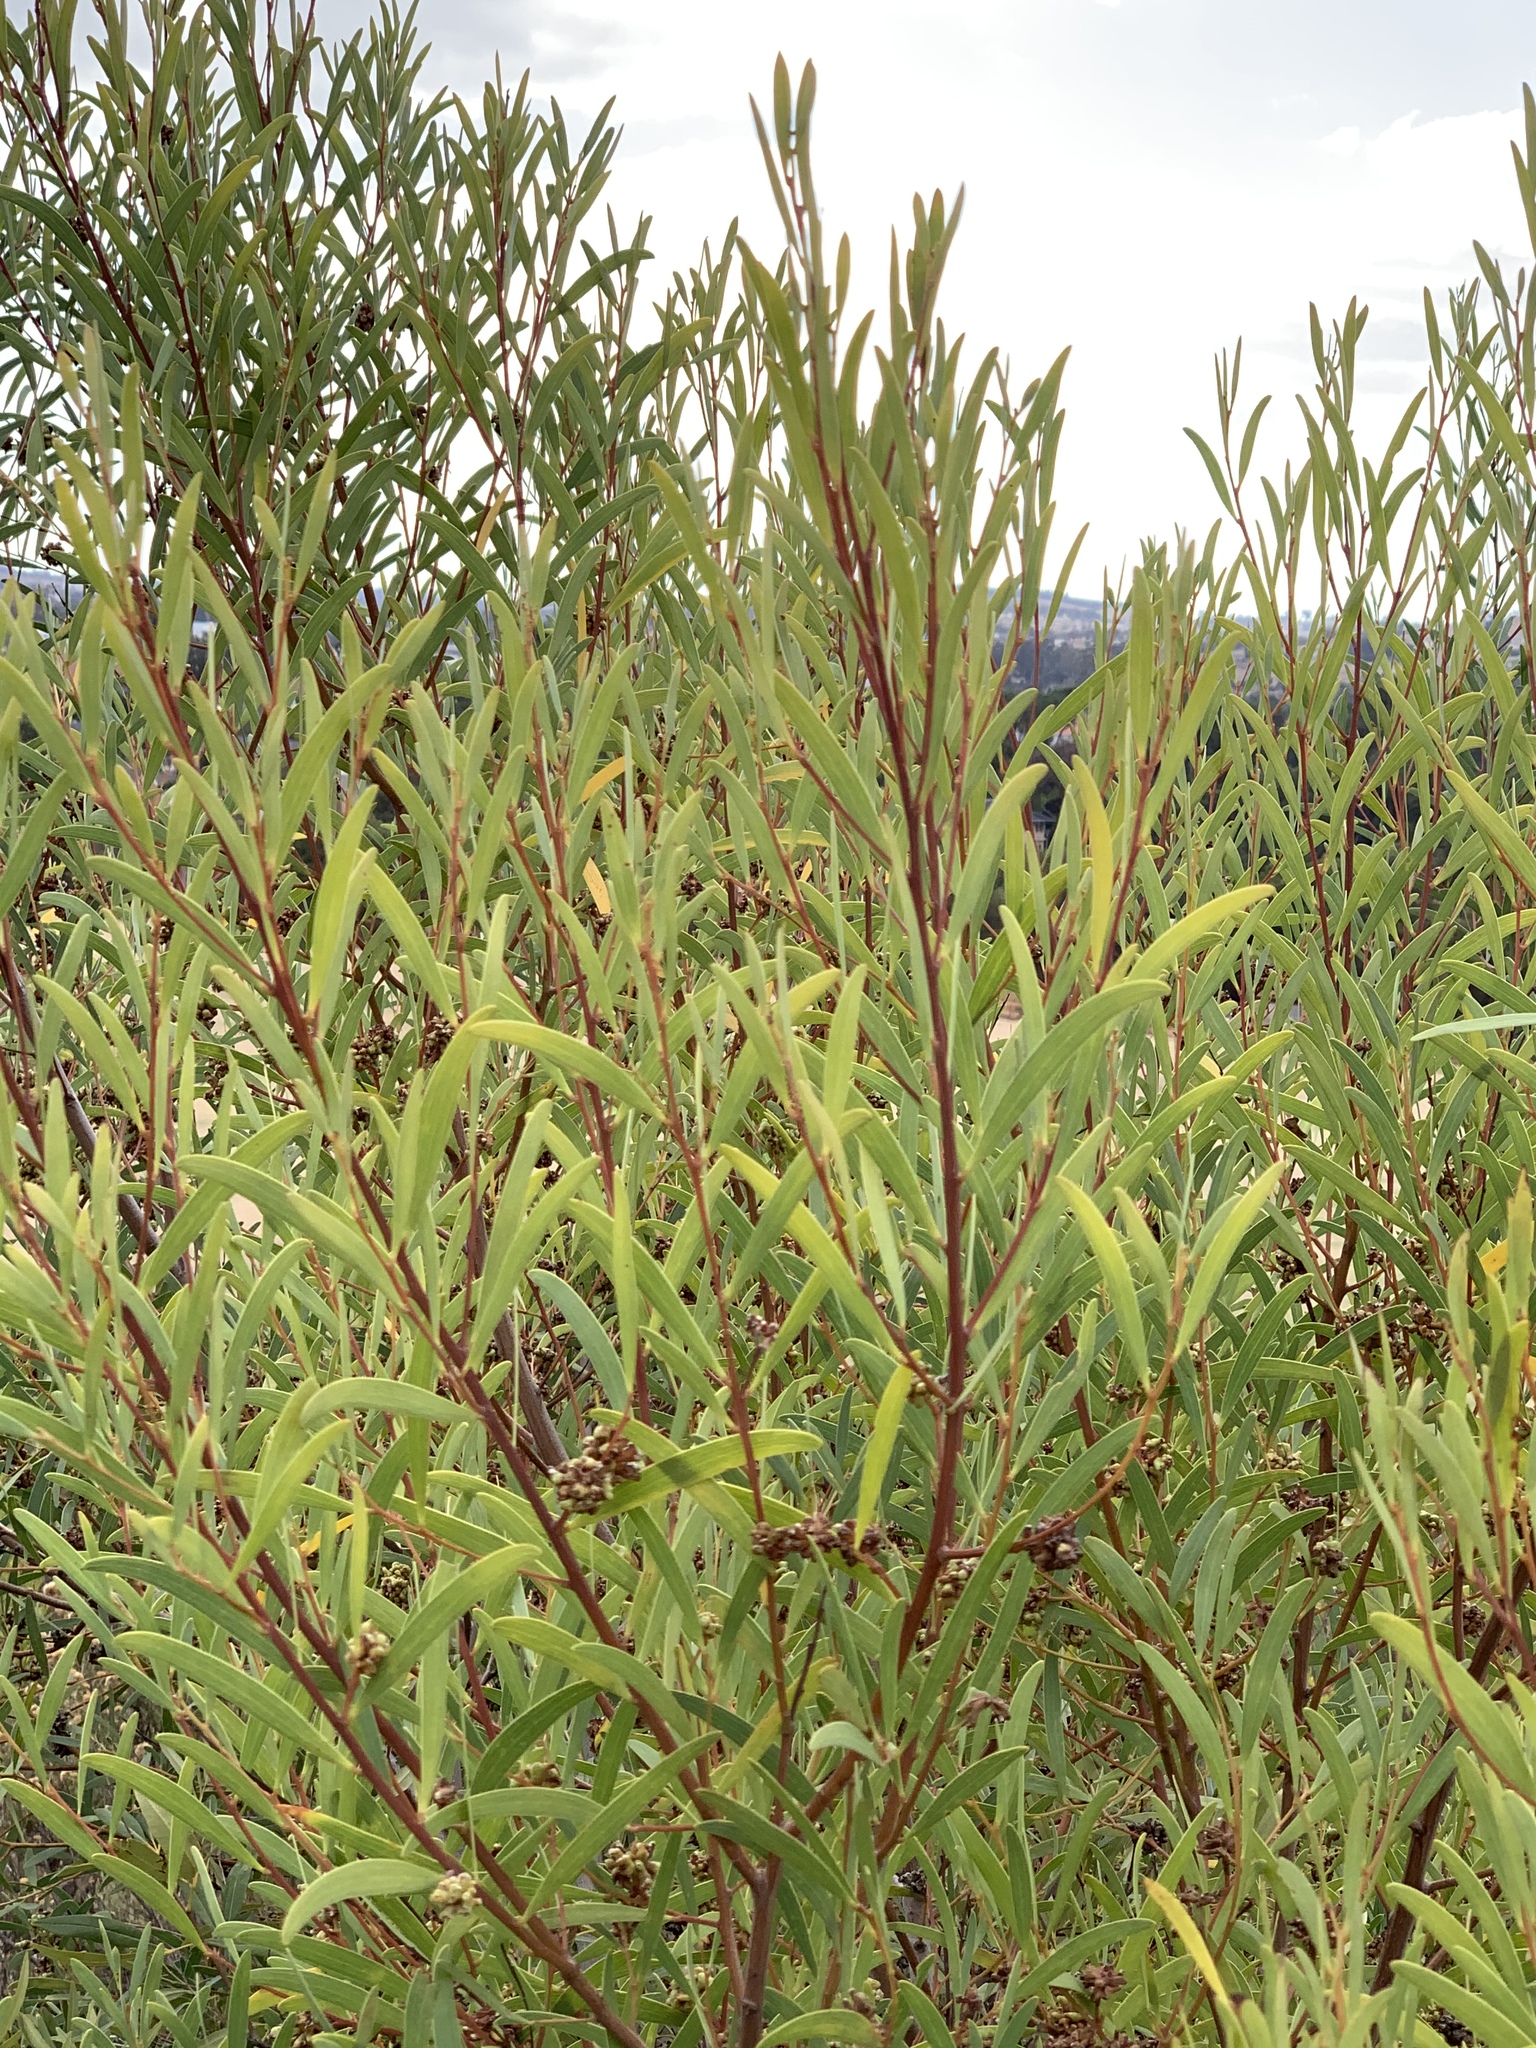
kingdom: Plantae
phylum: Tracheophyta
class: Magnoliopsida
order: Fabales
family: Fabaceae
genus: Acacia
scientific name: Acacia cyclops
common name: Coastal wattle
